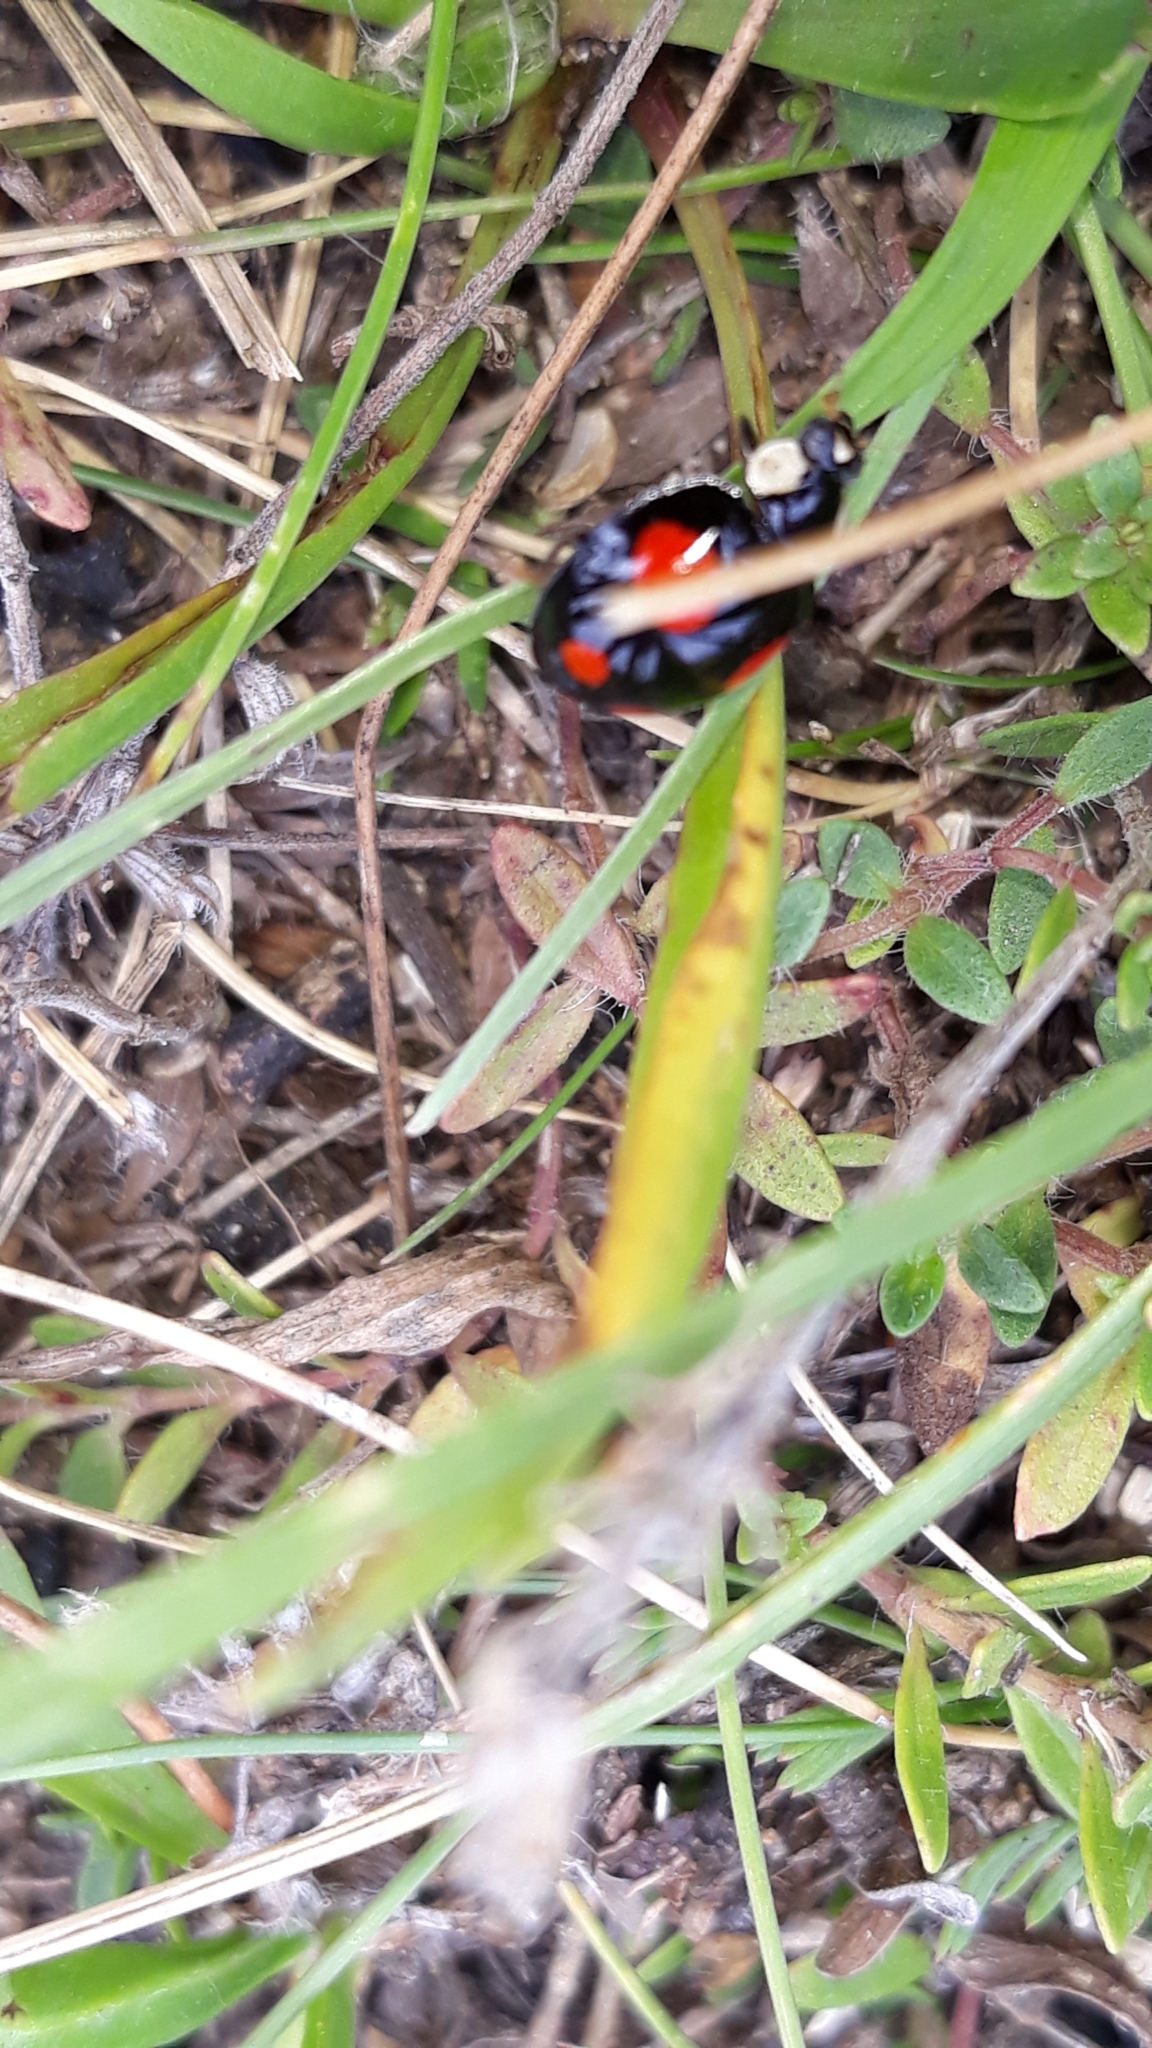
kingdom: Animalia
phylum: Arthropoda
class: Insecta
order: Coleoptera
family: Coccinellidae
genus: Harmonia
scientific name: Harmonia axyridis
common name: Harlequin ladybird
